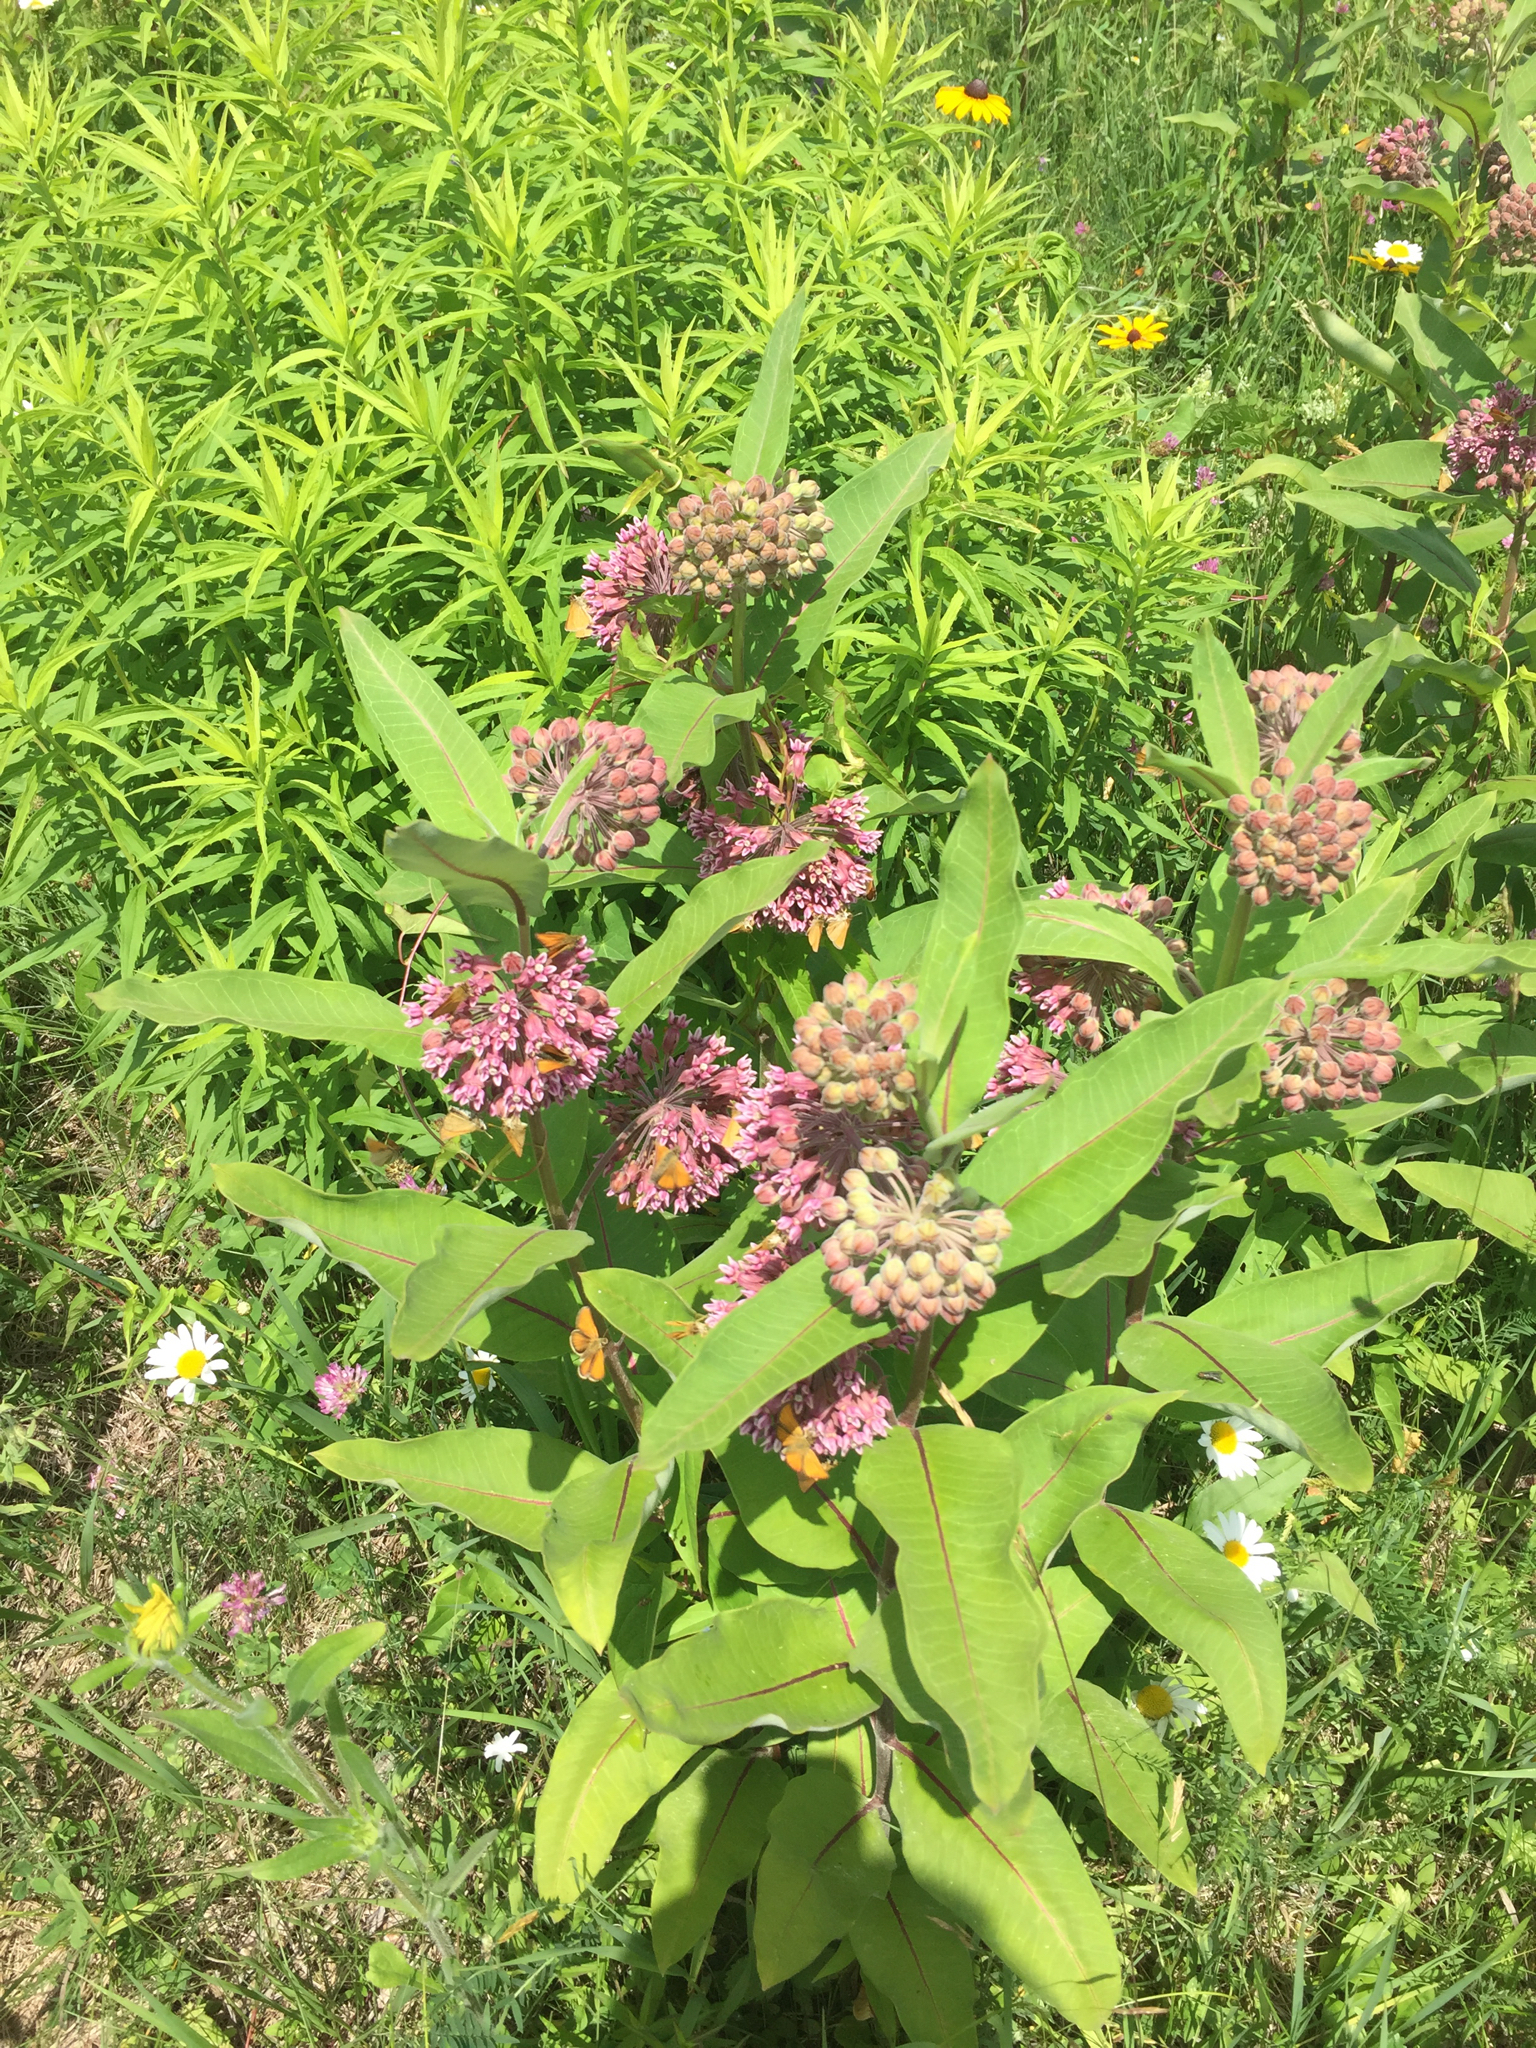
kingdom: Plantae
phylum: Tracheophyta
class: Magnoliopsida
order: Gentianales
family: Apocynaceae
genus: Asclepias
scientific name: Asclepias syriaca
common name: Common milkweed
